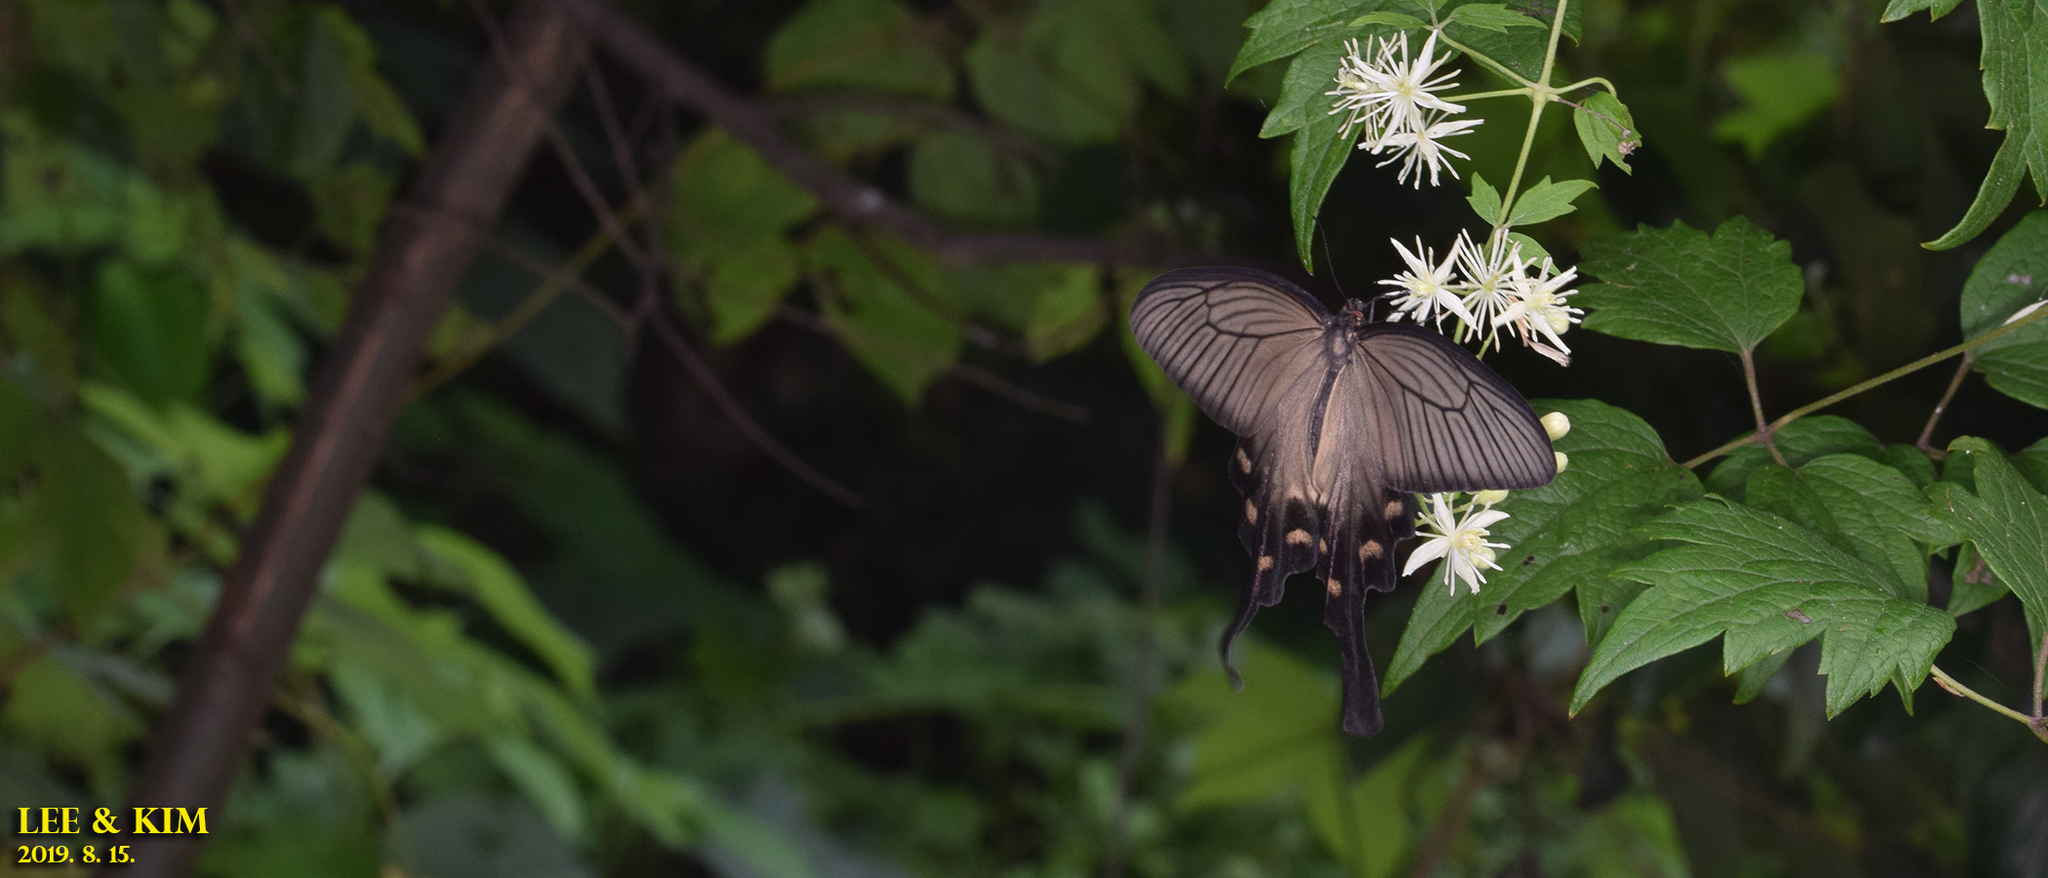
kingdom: Animalia
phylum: Arthropoda
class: Insecta
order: Lepidoptera
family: Papilionidae
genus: Byasa
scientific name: Byasa alcinous
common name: Chinese windmill
